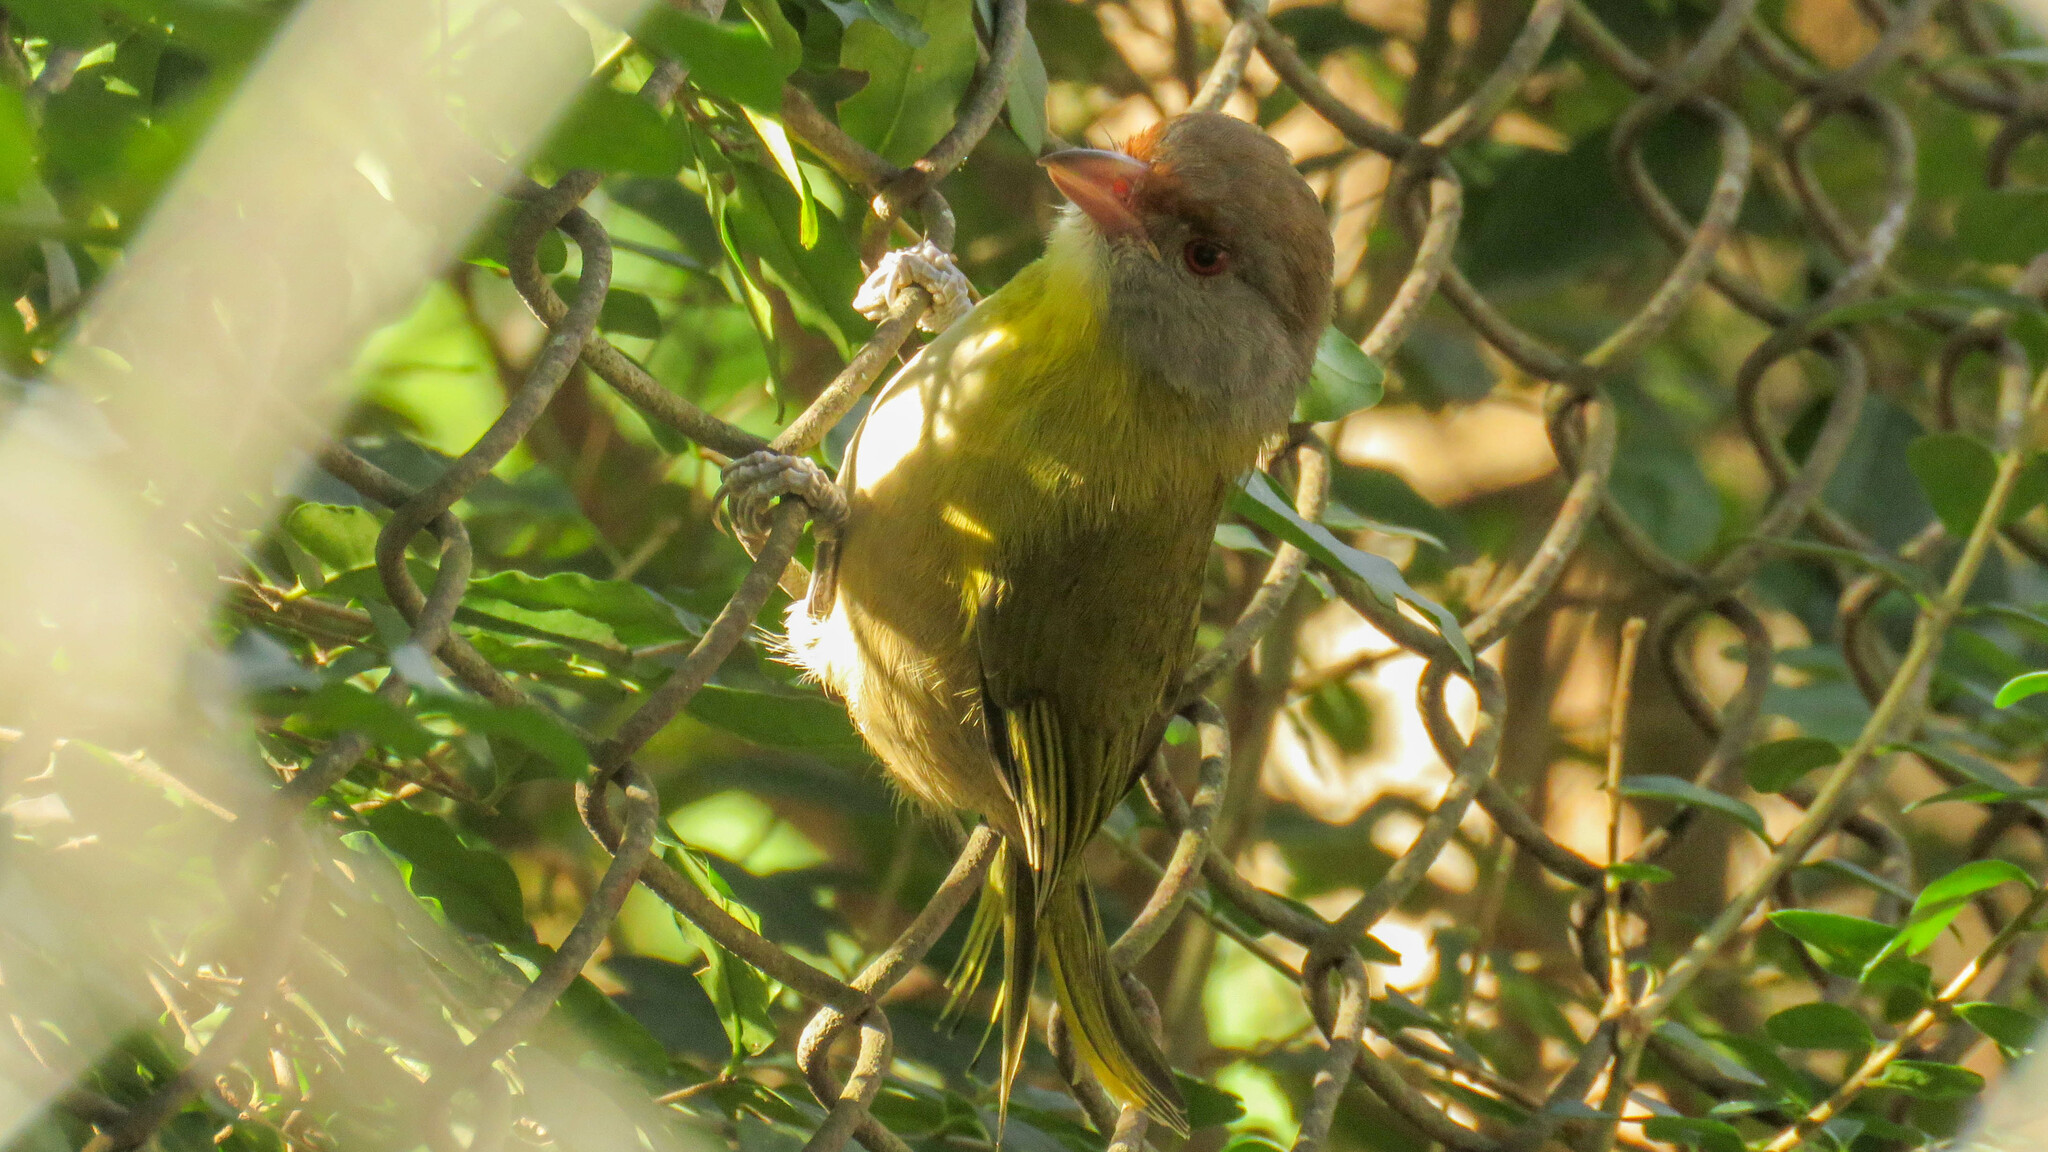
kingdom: Animalia
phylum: Chordata
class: Aves
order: Passeriformes
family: Vireonidae
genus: Cyclarhis
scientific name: Cyclarhis gujanensis
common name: Rufous-browed peppershrike
